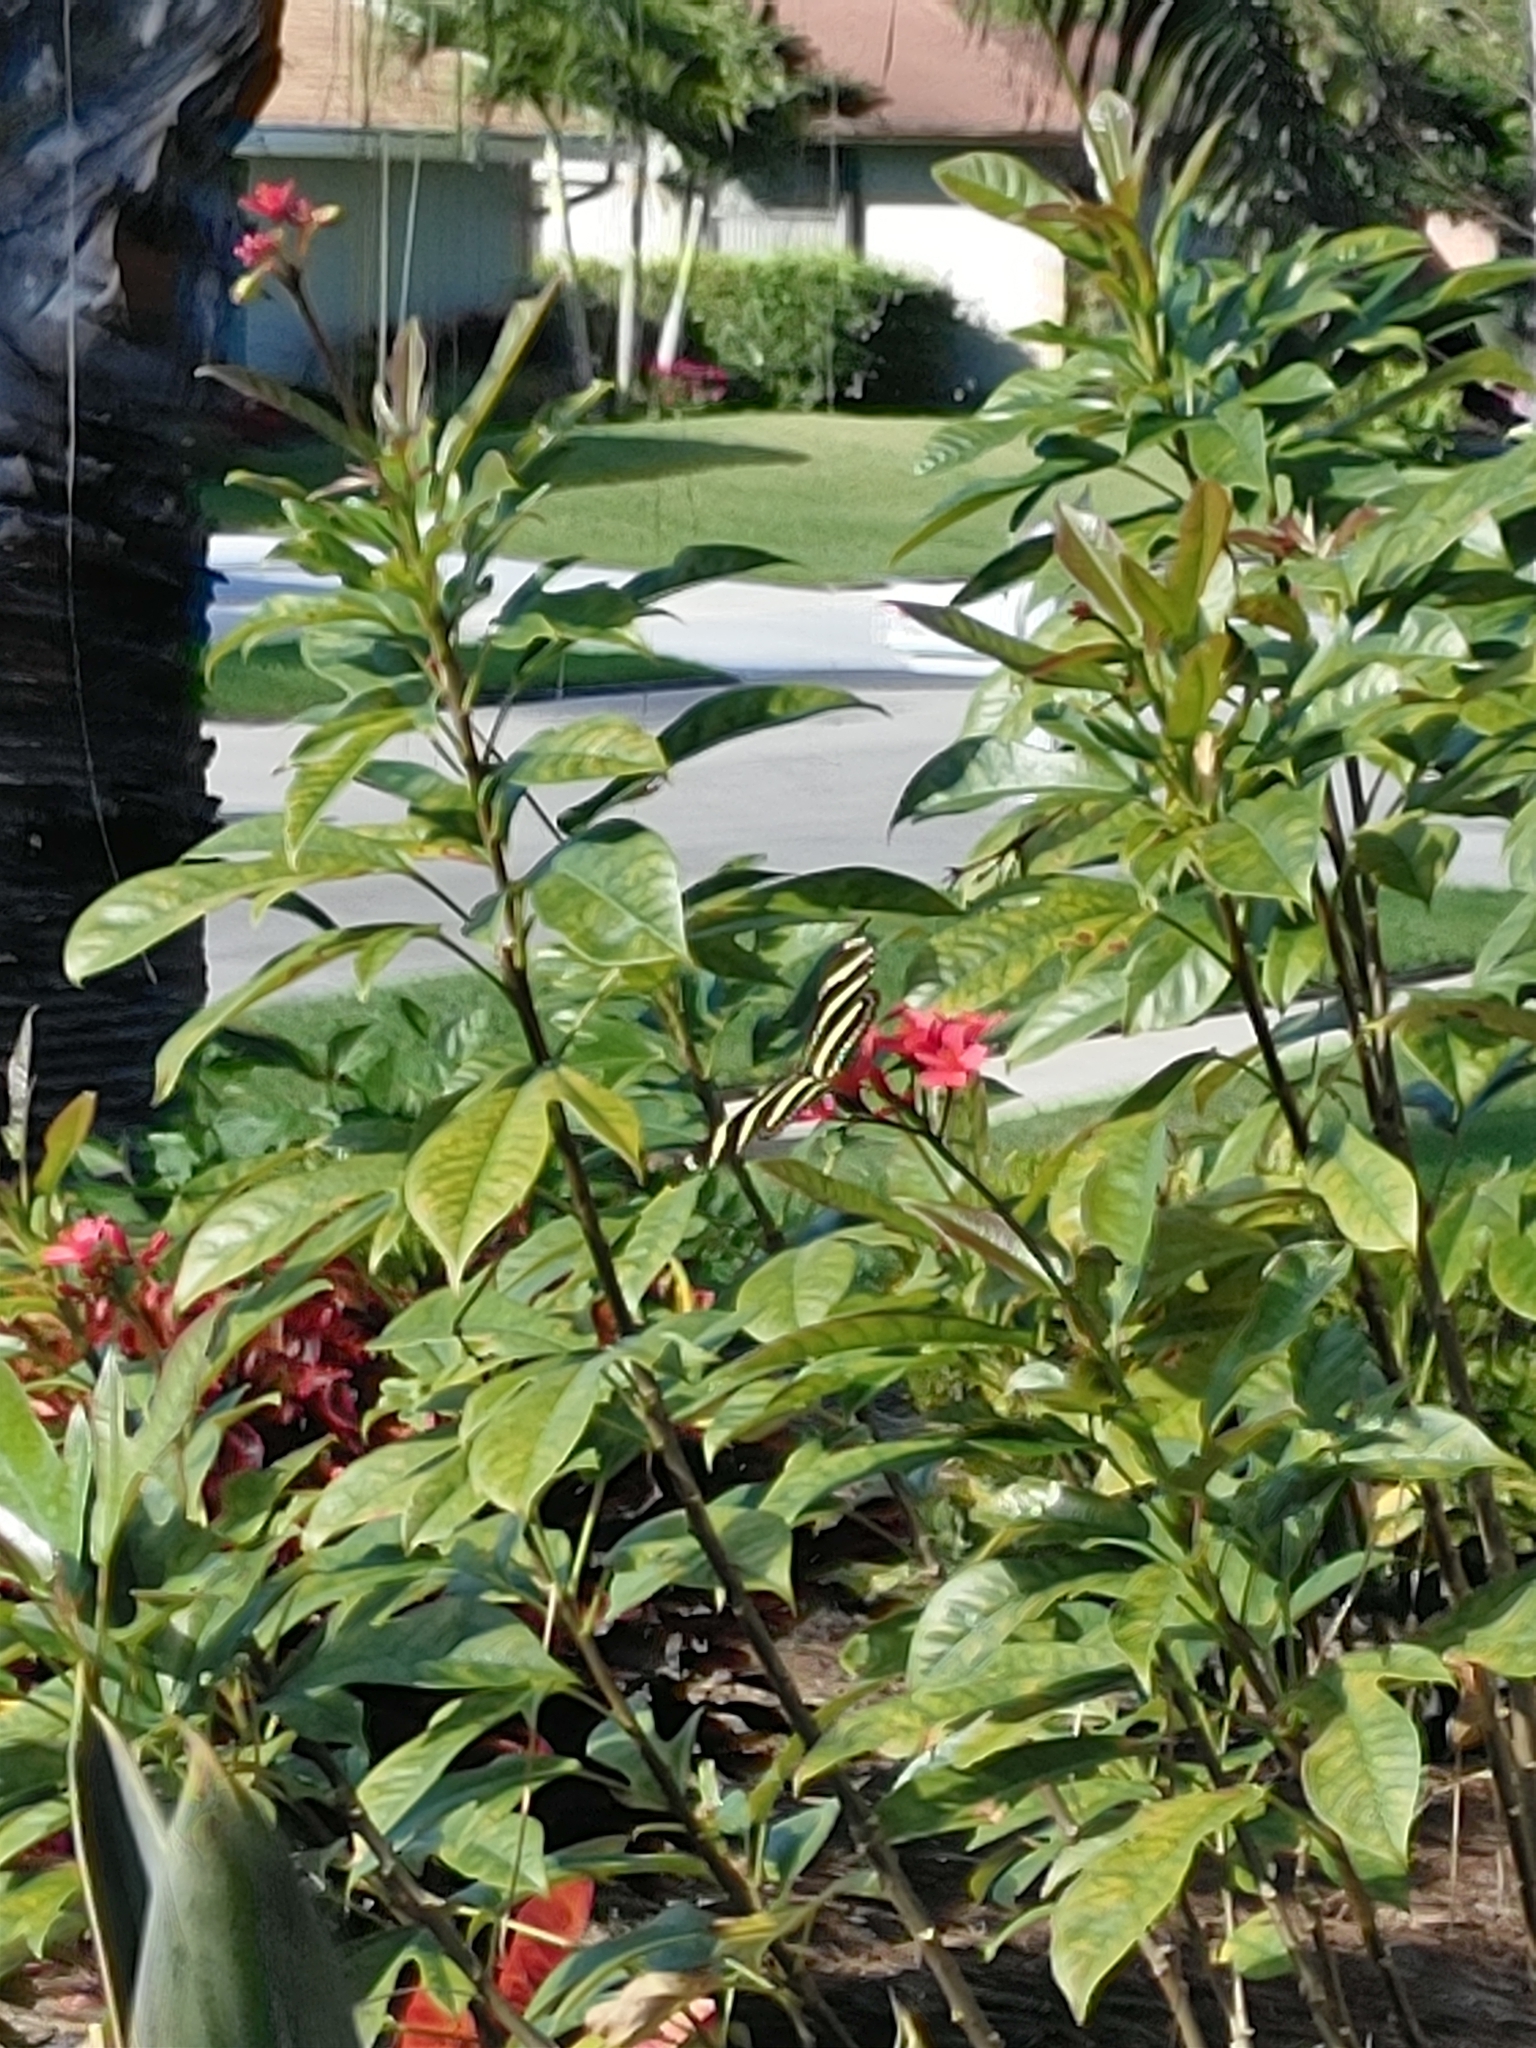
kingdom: Animalia
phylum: Arthropoda
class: Insecta
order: Lepidoptera
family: Nymphalidae
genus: Heliconius
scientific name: Heliconius charithonia
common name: Zebra long wing
